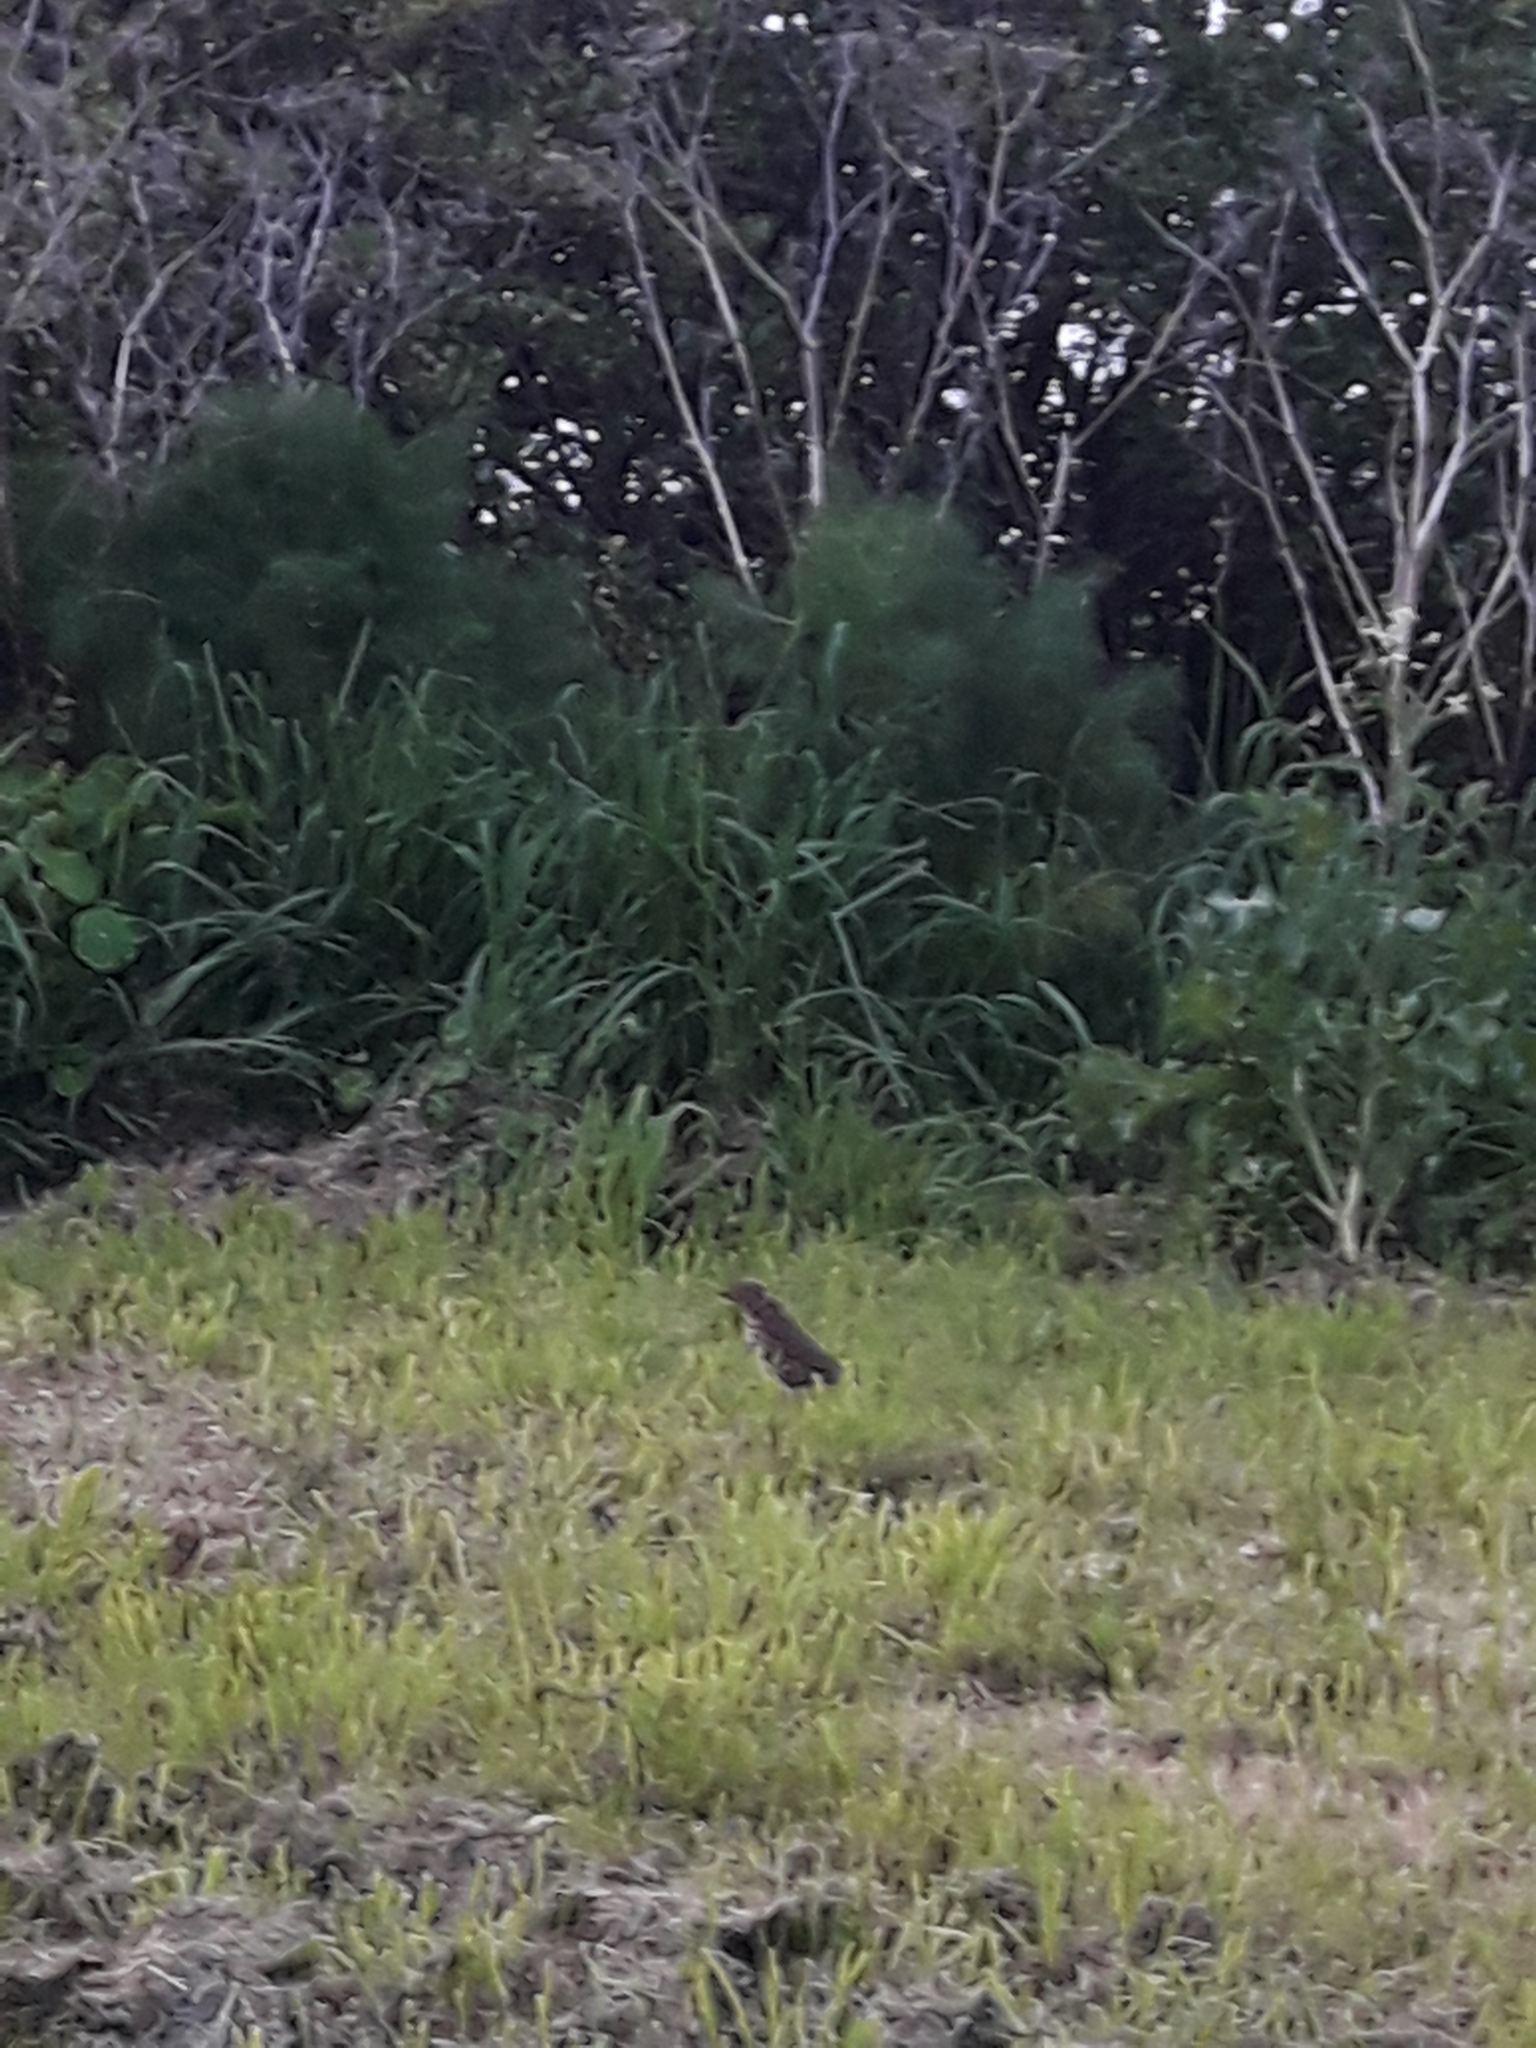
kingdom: Animalia
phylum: Chordata
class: Aves
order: Passeriformes
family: Turdidae
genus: Turdus
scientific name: Turdus philomelos
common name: Song thrush
